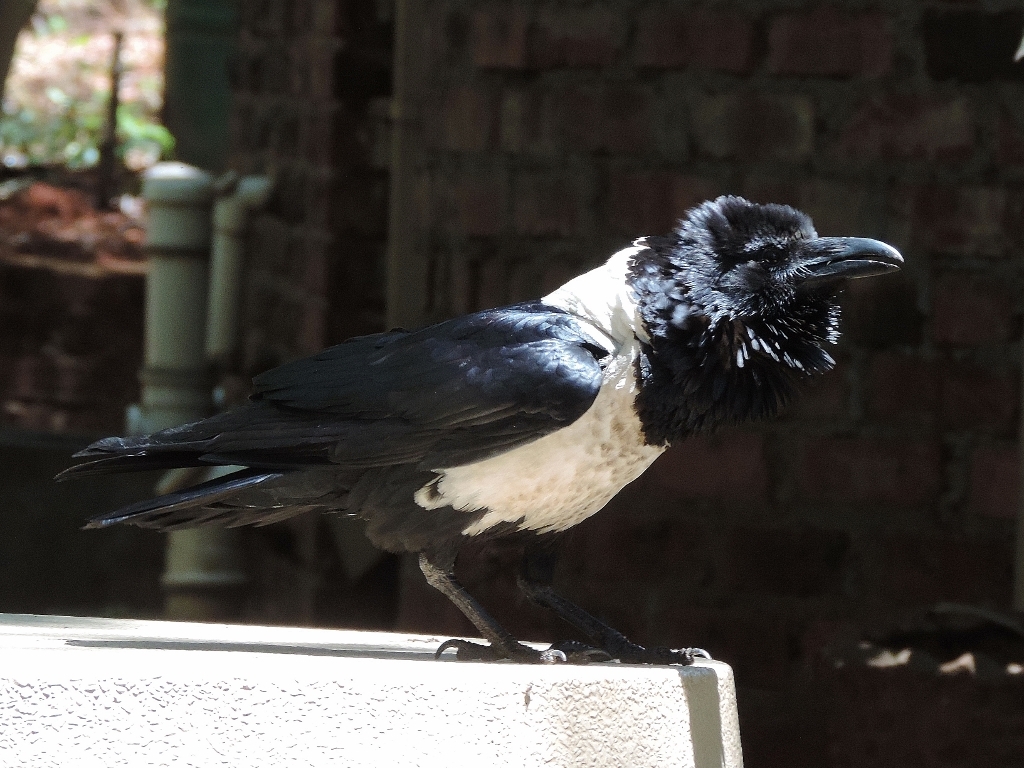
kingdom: Animalia
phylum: Chordata
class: Aves
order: Passeriformes
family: Corvidae
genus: Corvus
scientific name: Corvus albus
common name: Pied crow
